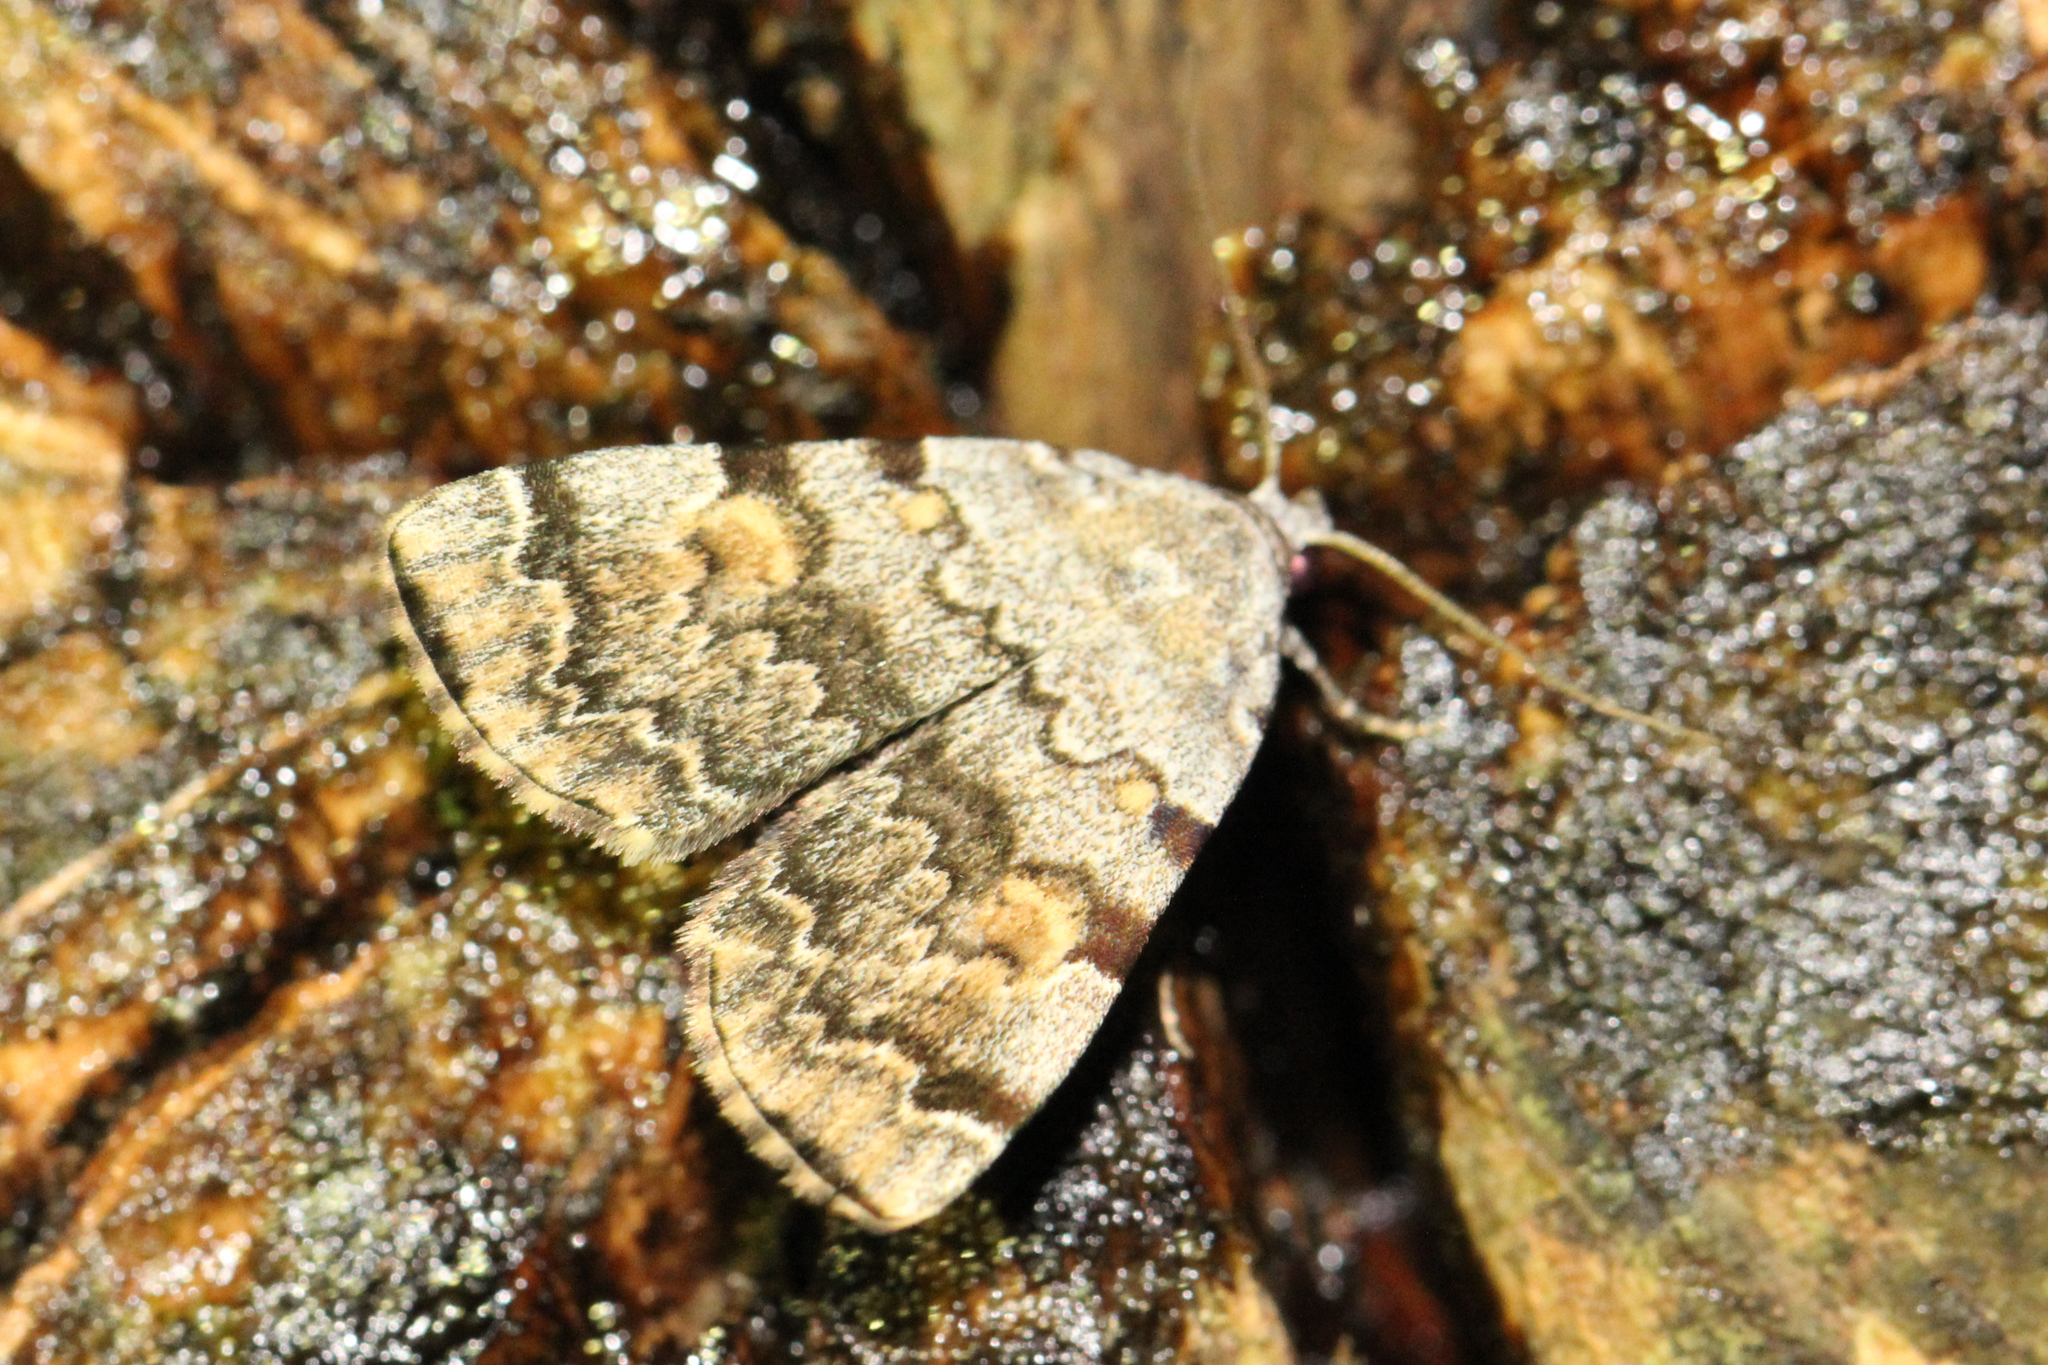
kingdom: Animalia
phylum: Arthropoda
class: Insecta
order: Lepidoptera
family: Erebidae
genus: Idia
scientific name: Idia americalis
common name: American idia moth
